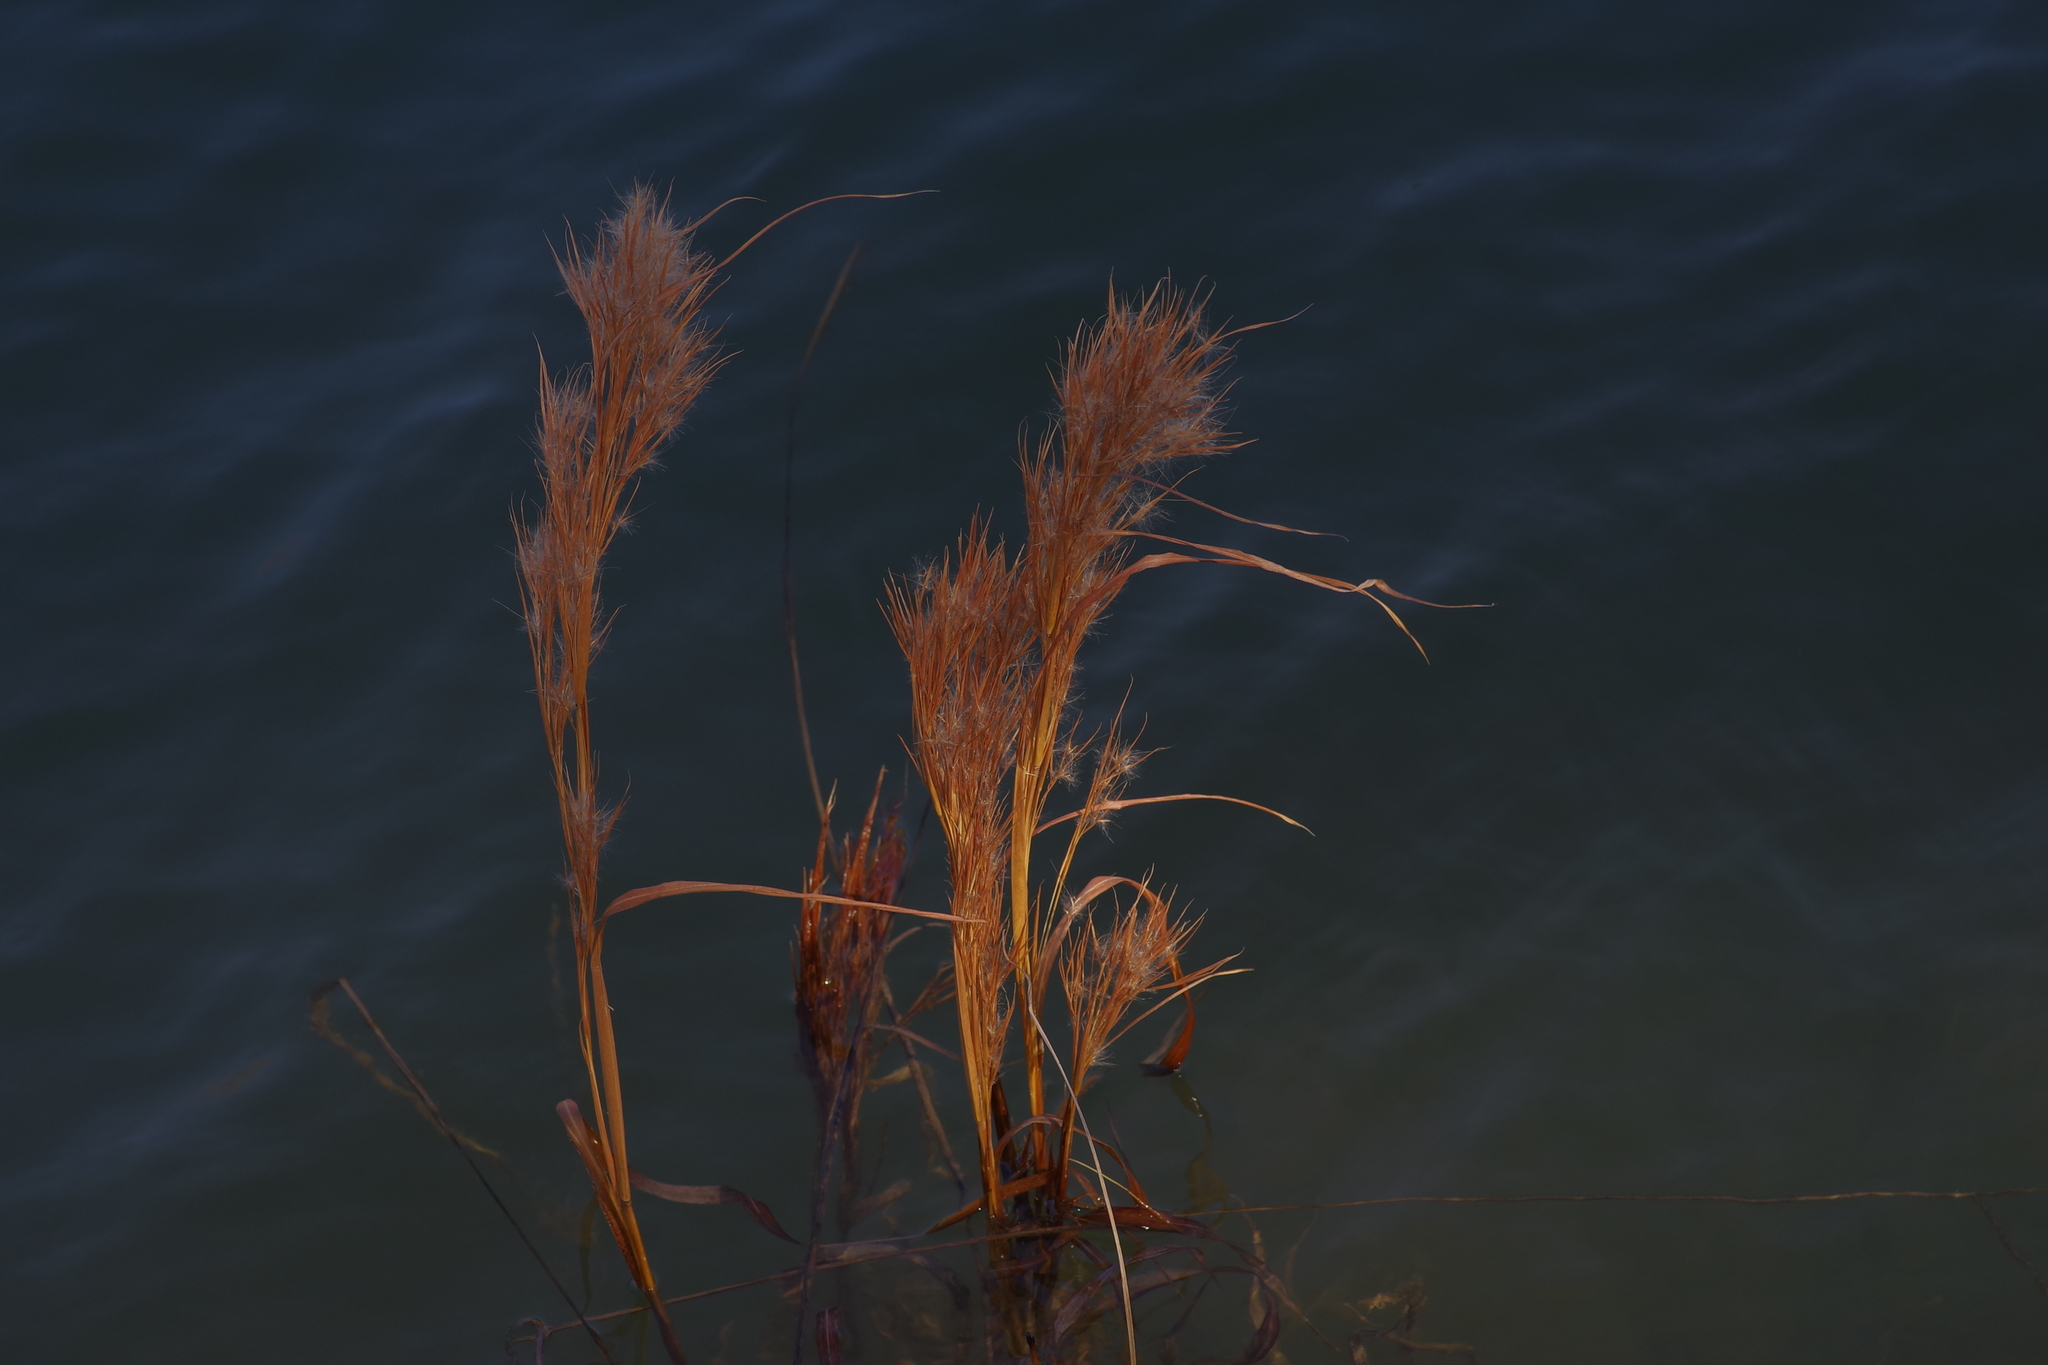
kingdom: Plantae
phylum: Tracheophyta
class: Liliopsida
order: Poales
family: Poaceae
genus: Andropogon
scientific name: Andropogon tenuispatheus
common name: Bushy bluestem
